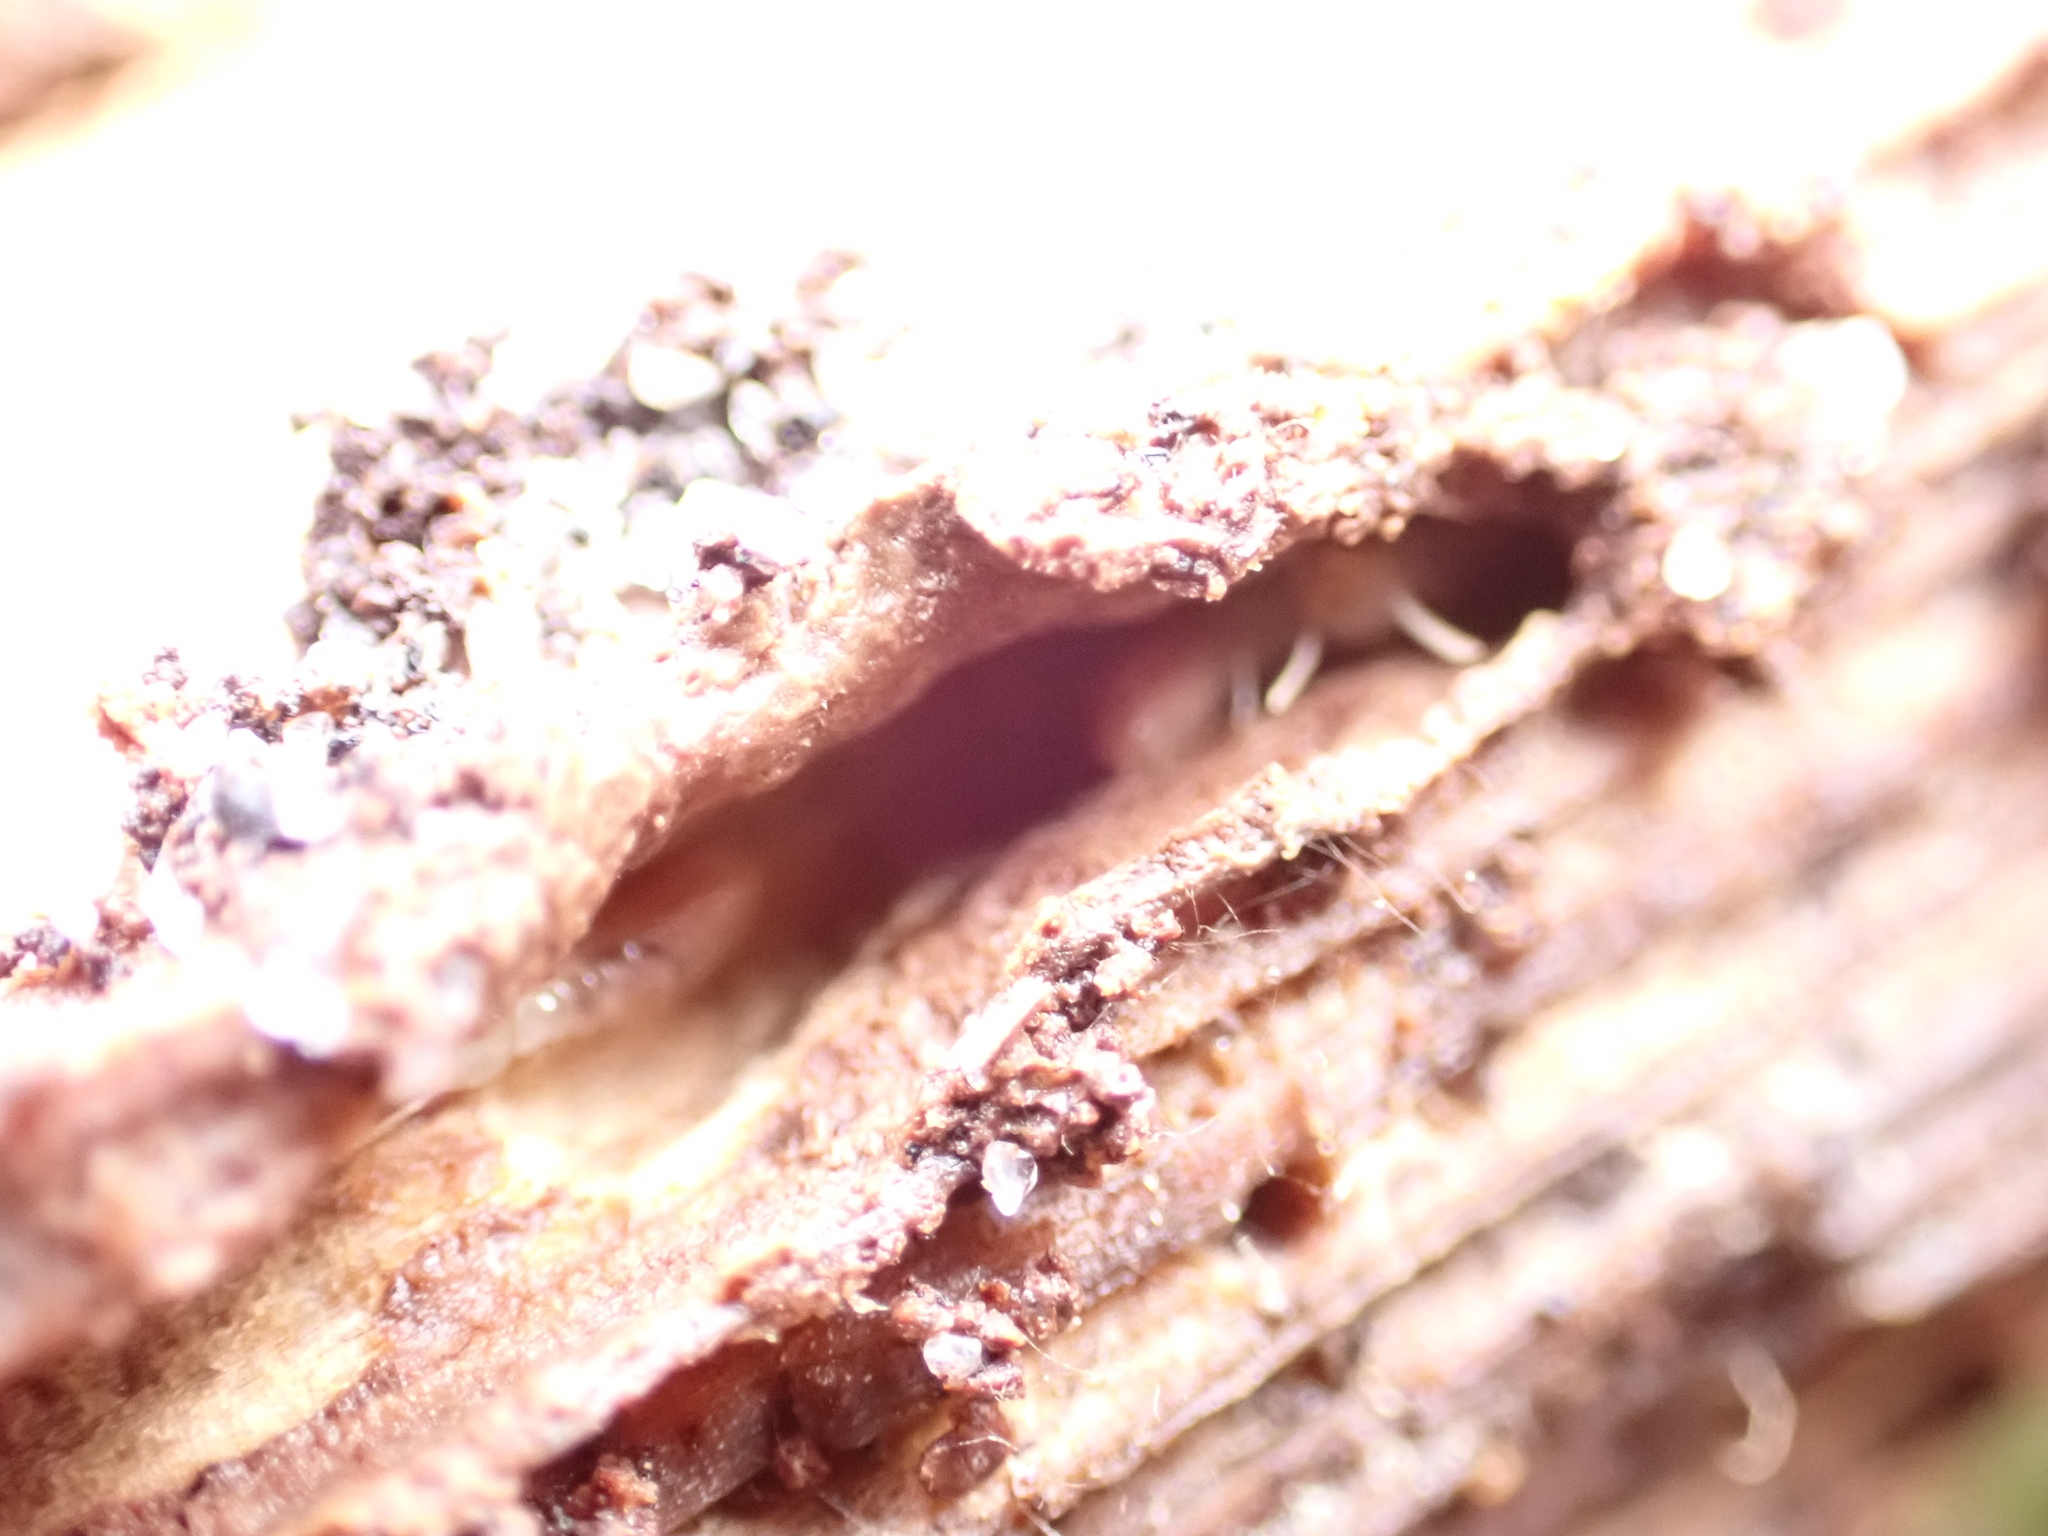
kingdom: Animalia
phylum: Arthropoda
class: Insecta
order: Blattodea
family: Rhinotermitidae
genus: Reticulitermes
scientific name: Reticulitermes flavipes
